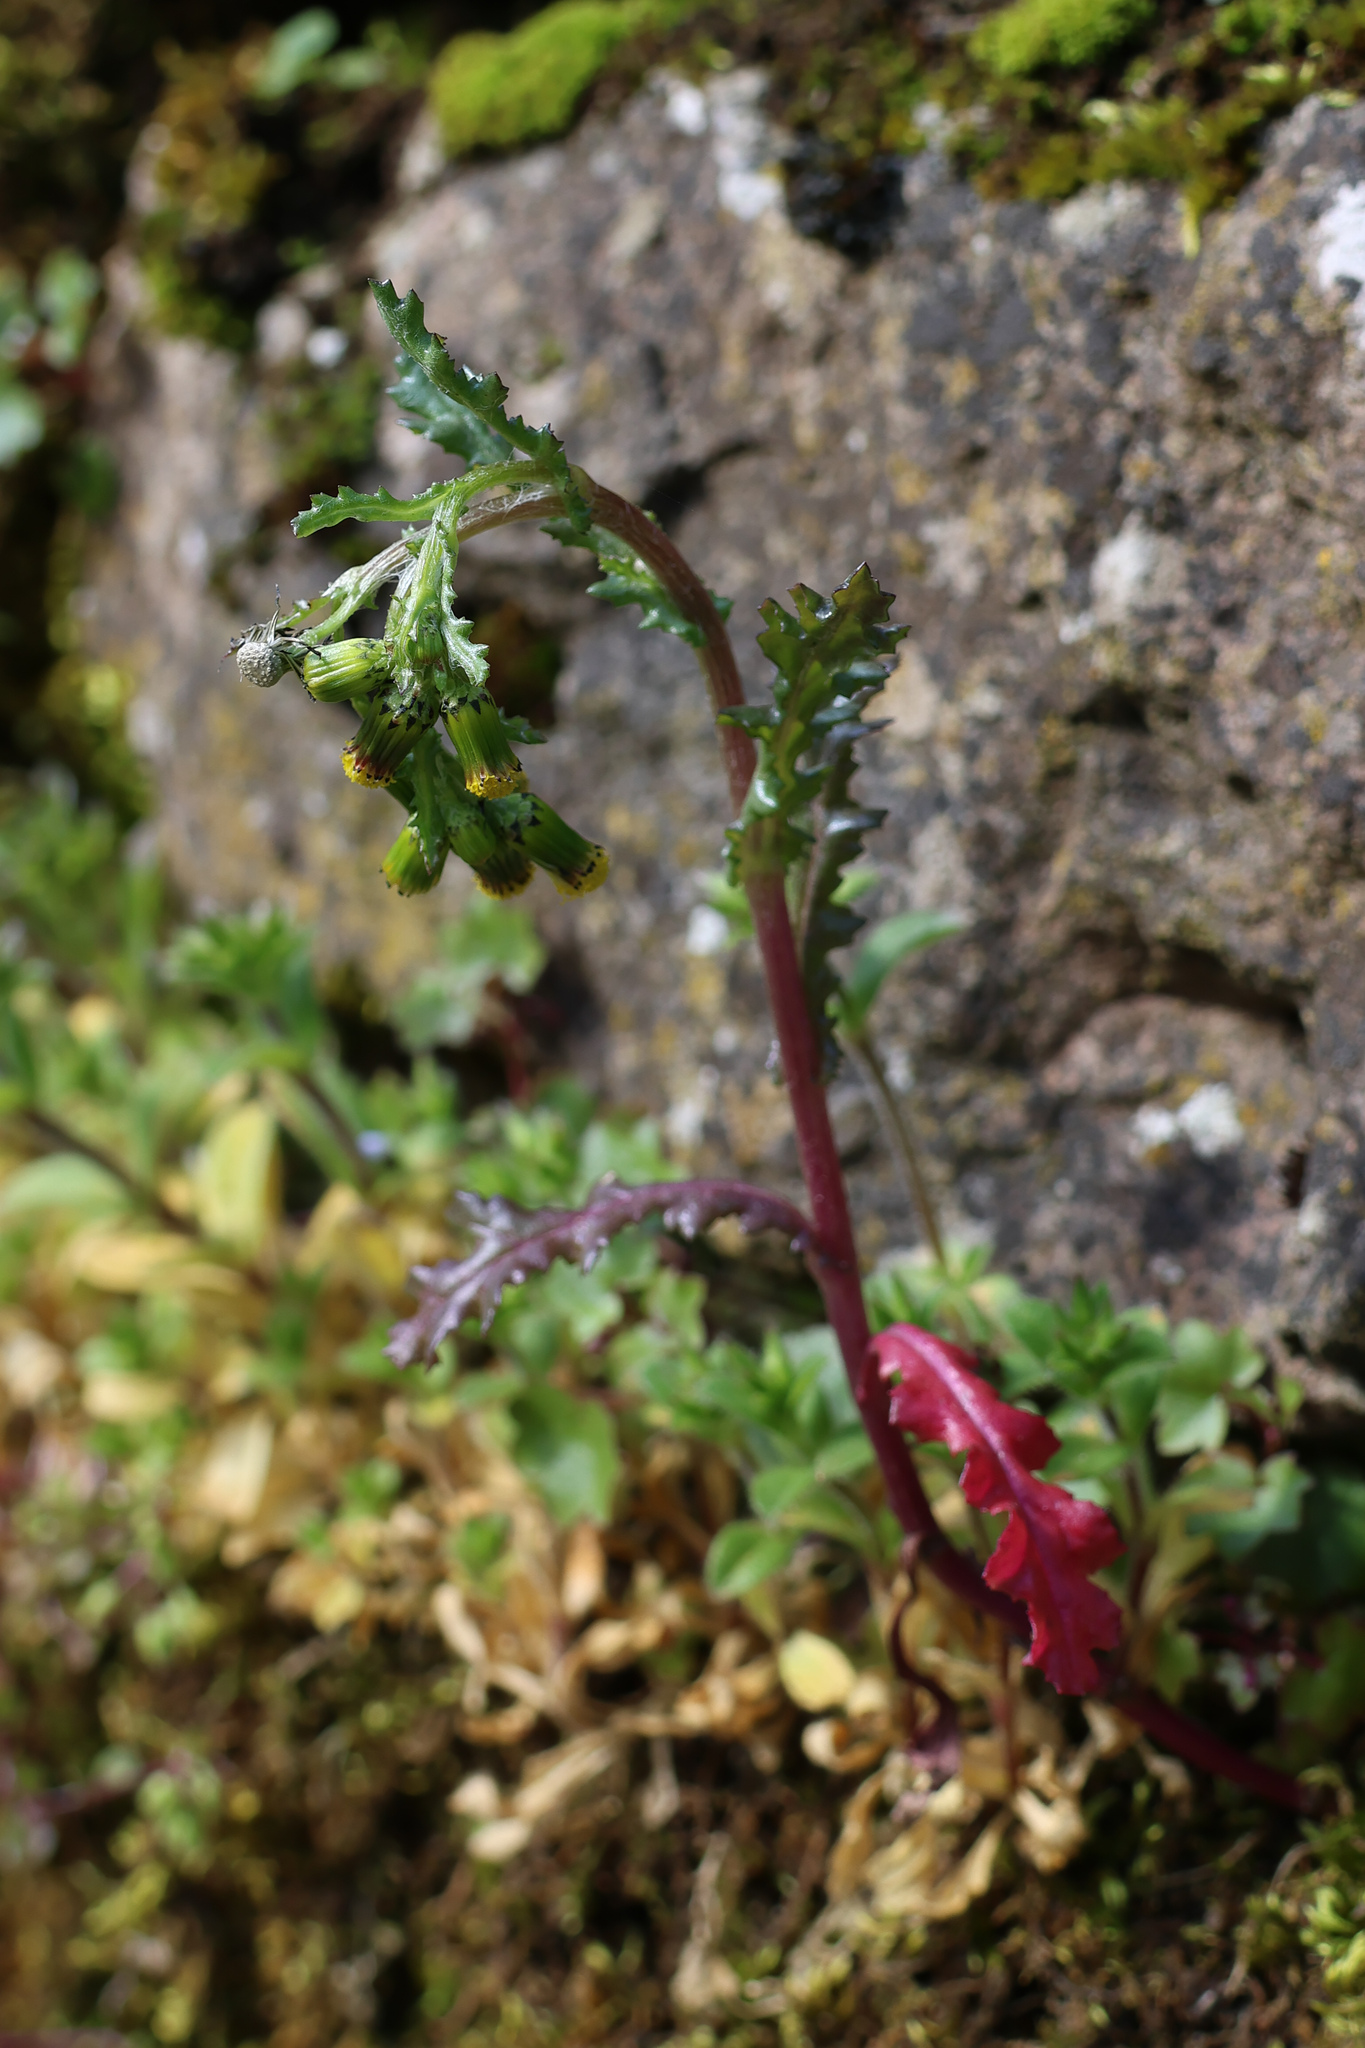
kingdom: Plantae
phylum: Tracheophyta
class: Magnoliopsida
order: Asterales
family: Asteraceae
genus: Senecio
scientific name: Senecio vulgaris
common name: Old-man-in-the-spring
